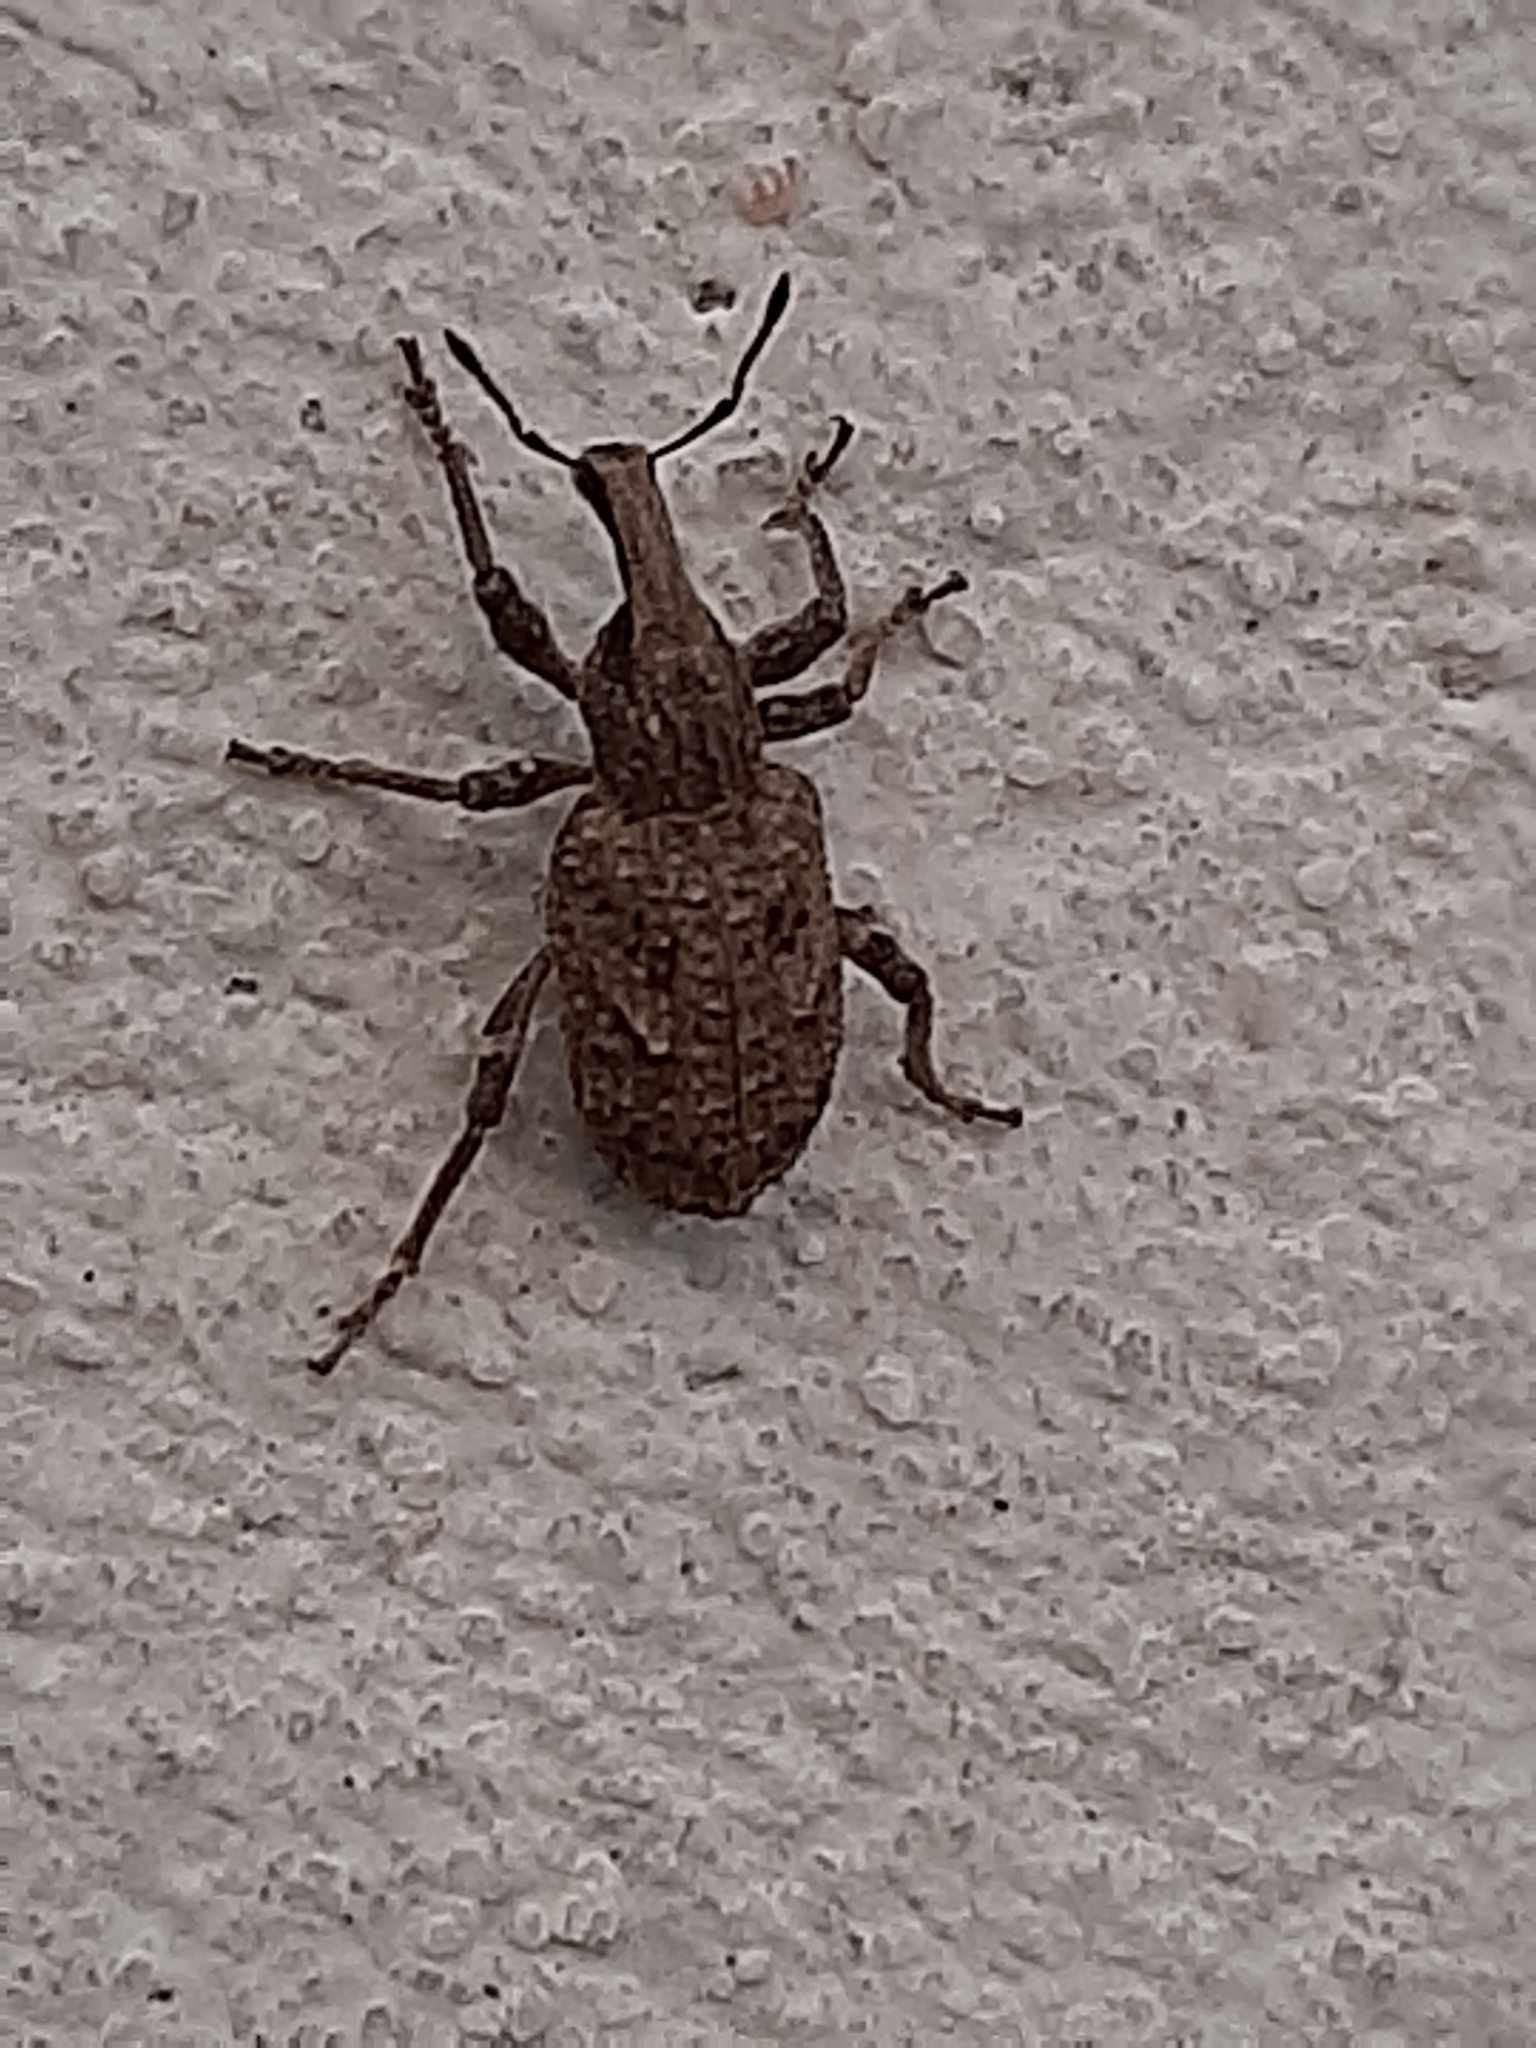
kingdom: Animalia
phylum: Arthropoda
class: Insecta
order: Coleoptera
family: Curculionidae
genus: Rhytideres
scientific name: Rhytideres plicatus
